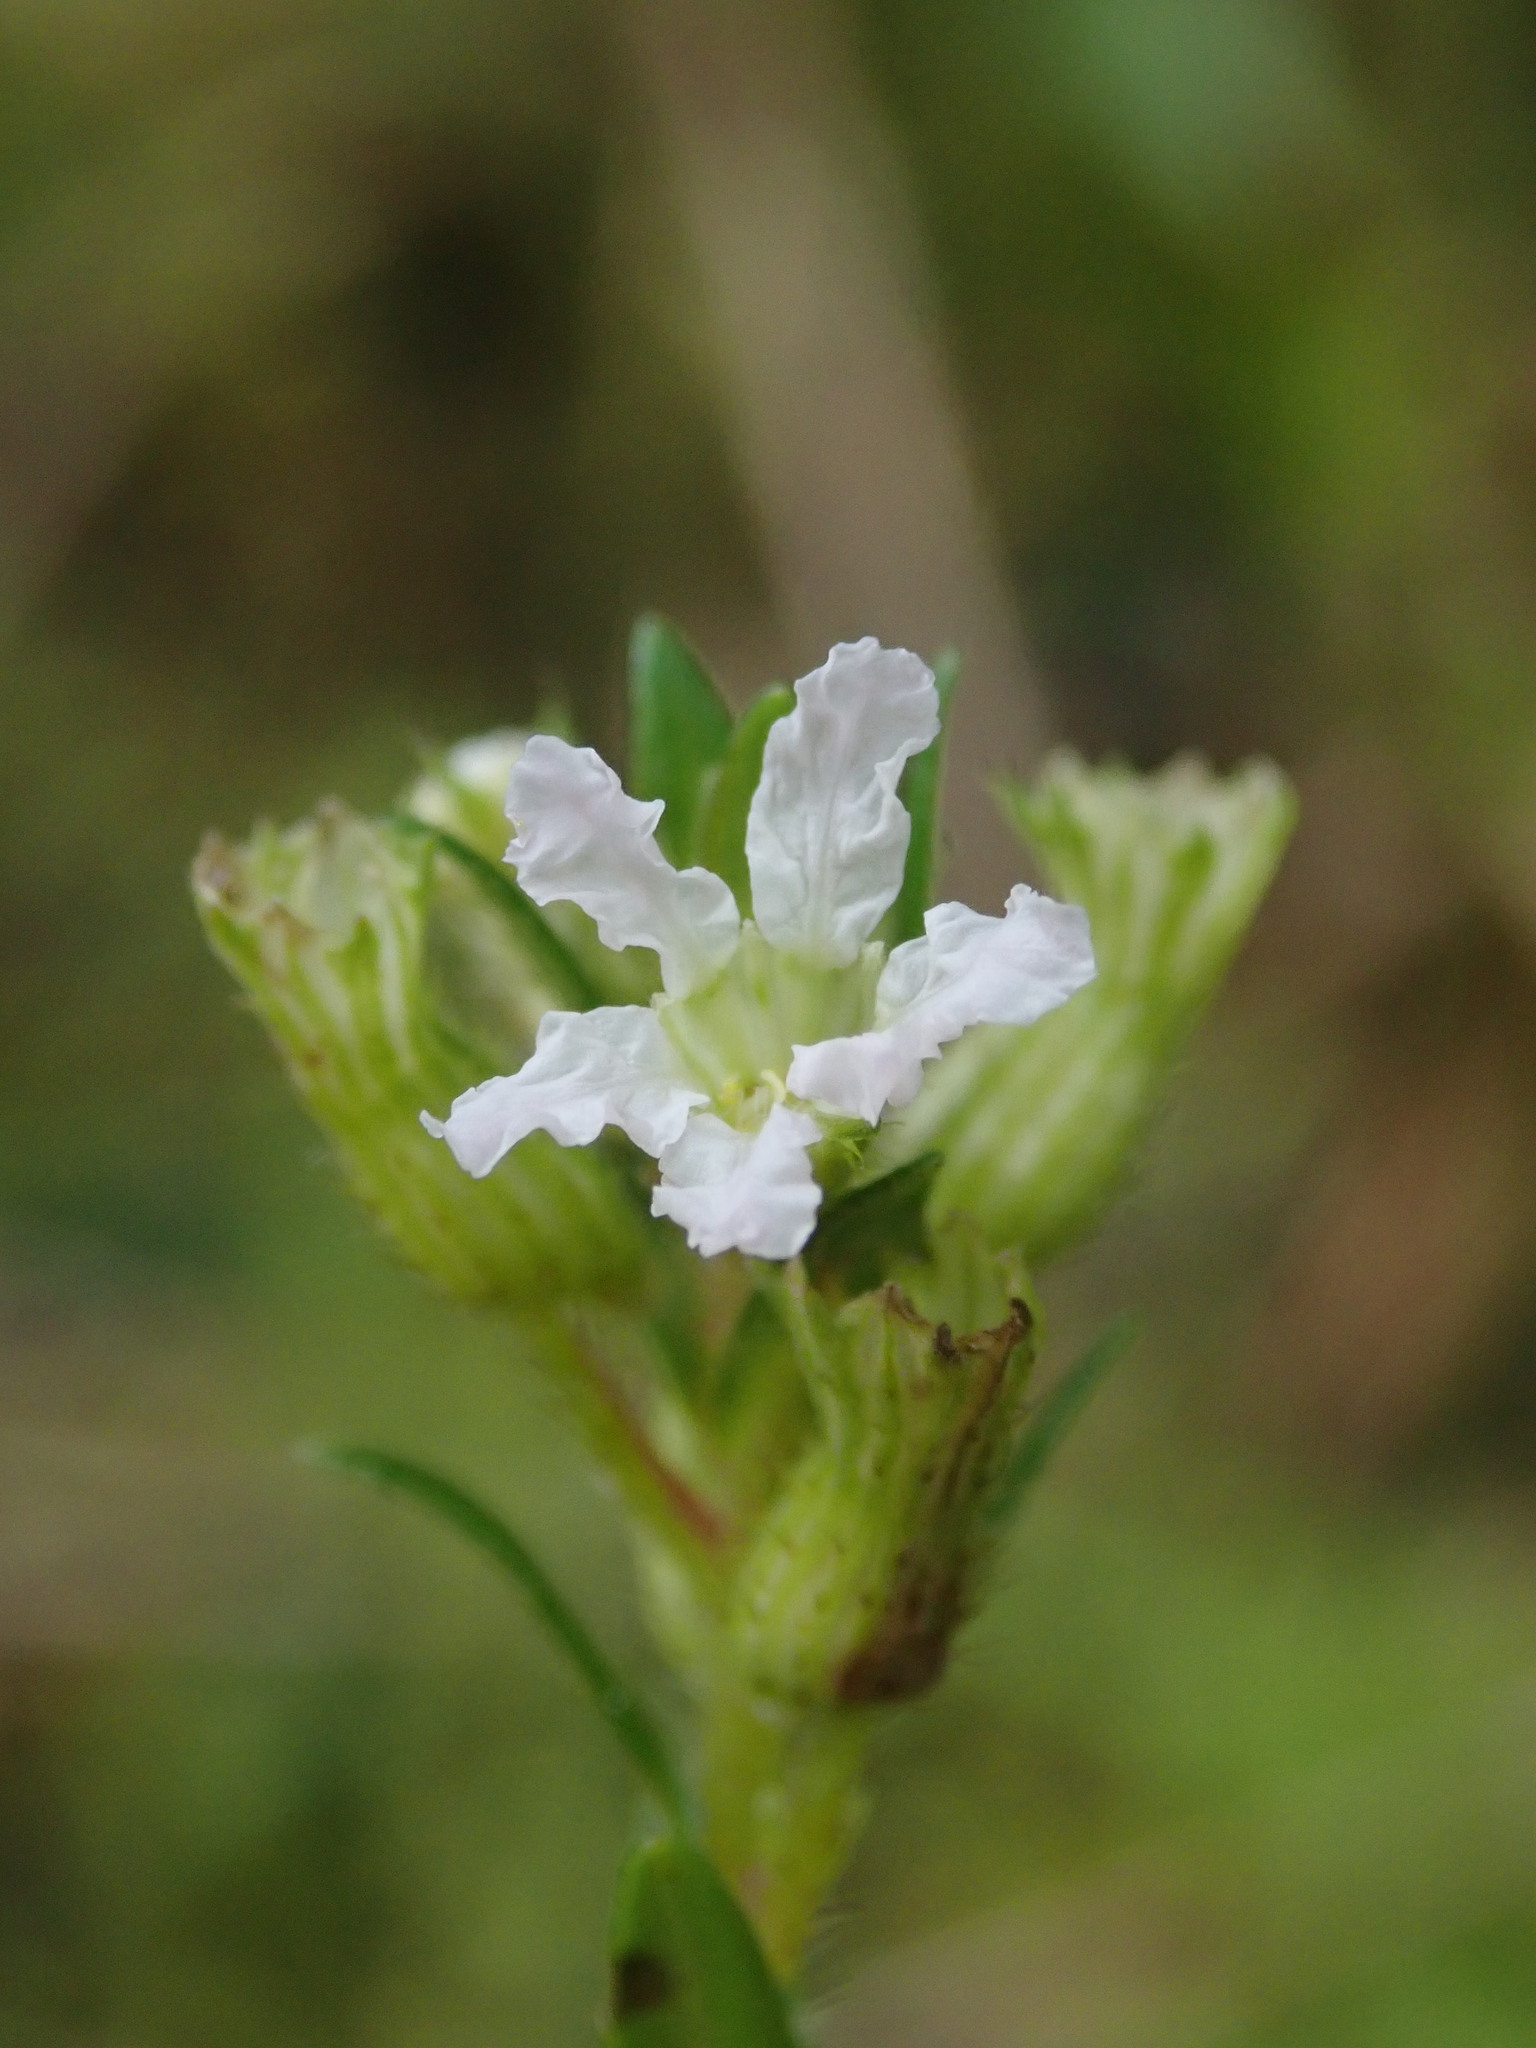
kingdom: Plantae
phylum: Tracheophyta
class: Magnoliopsida
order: Myrtales
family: Lythraceae
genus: Cuphea
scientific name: Cuphea sucumbiensis
